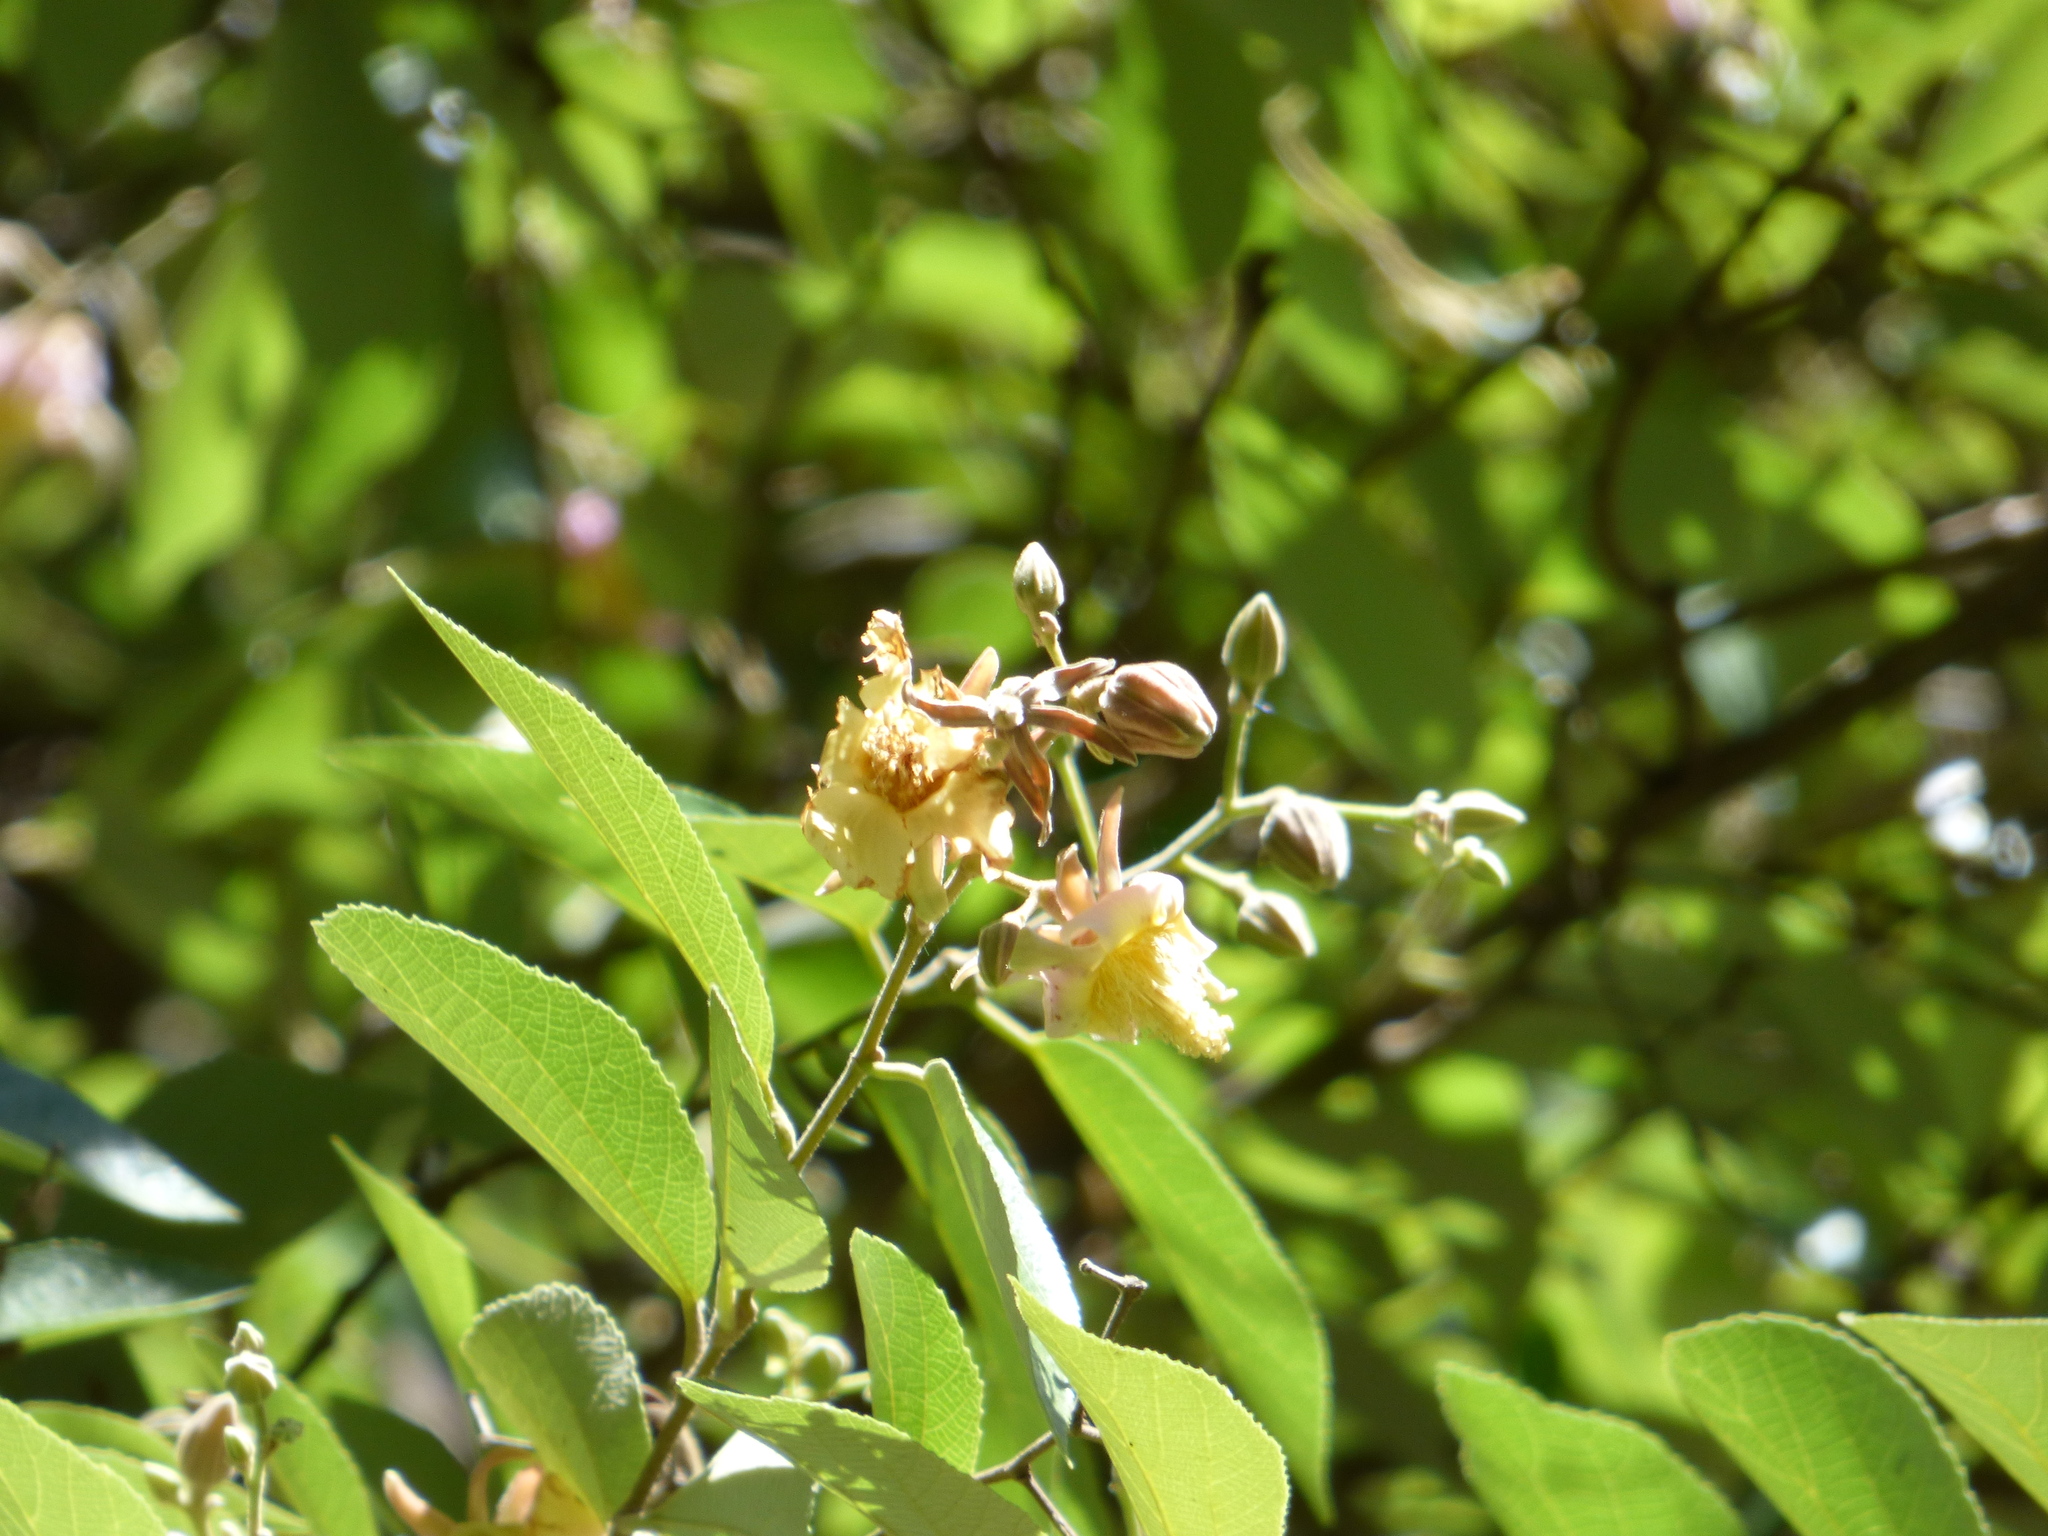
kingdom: Plantae
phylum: Tracheophyta
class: Magnoliopsida
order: Malvales
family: Malvaceae
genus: Luehea
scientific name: Luehea divaricata
